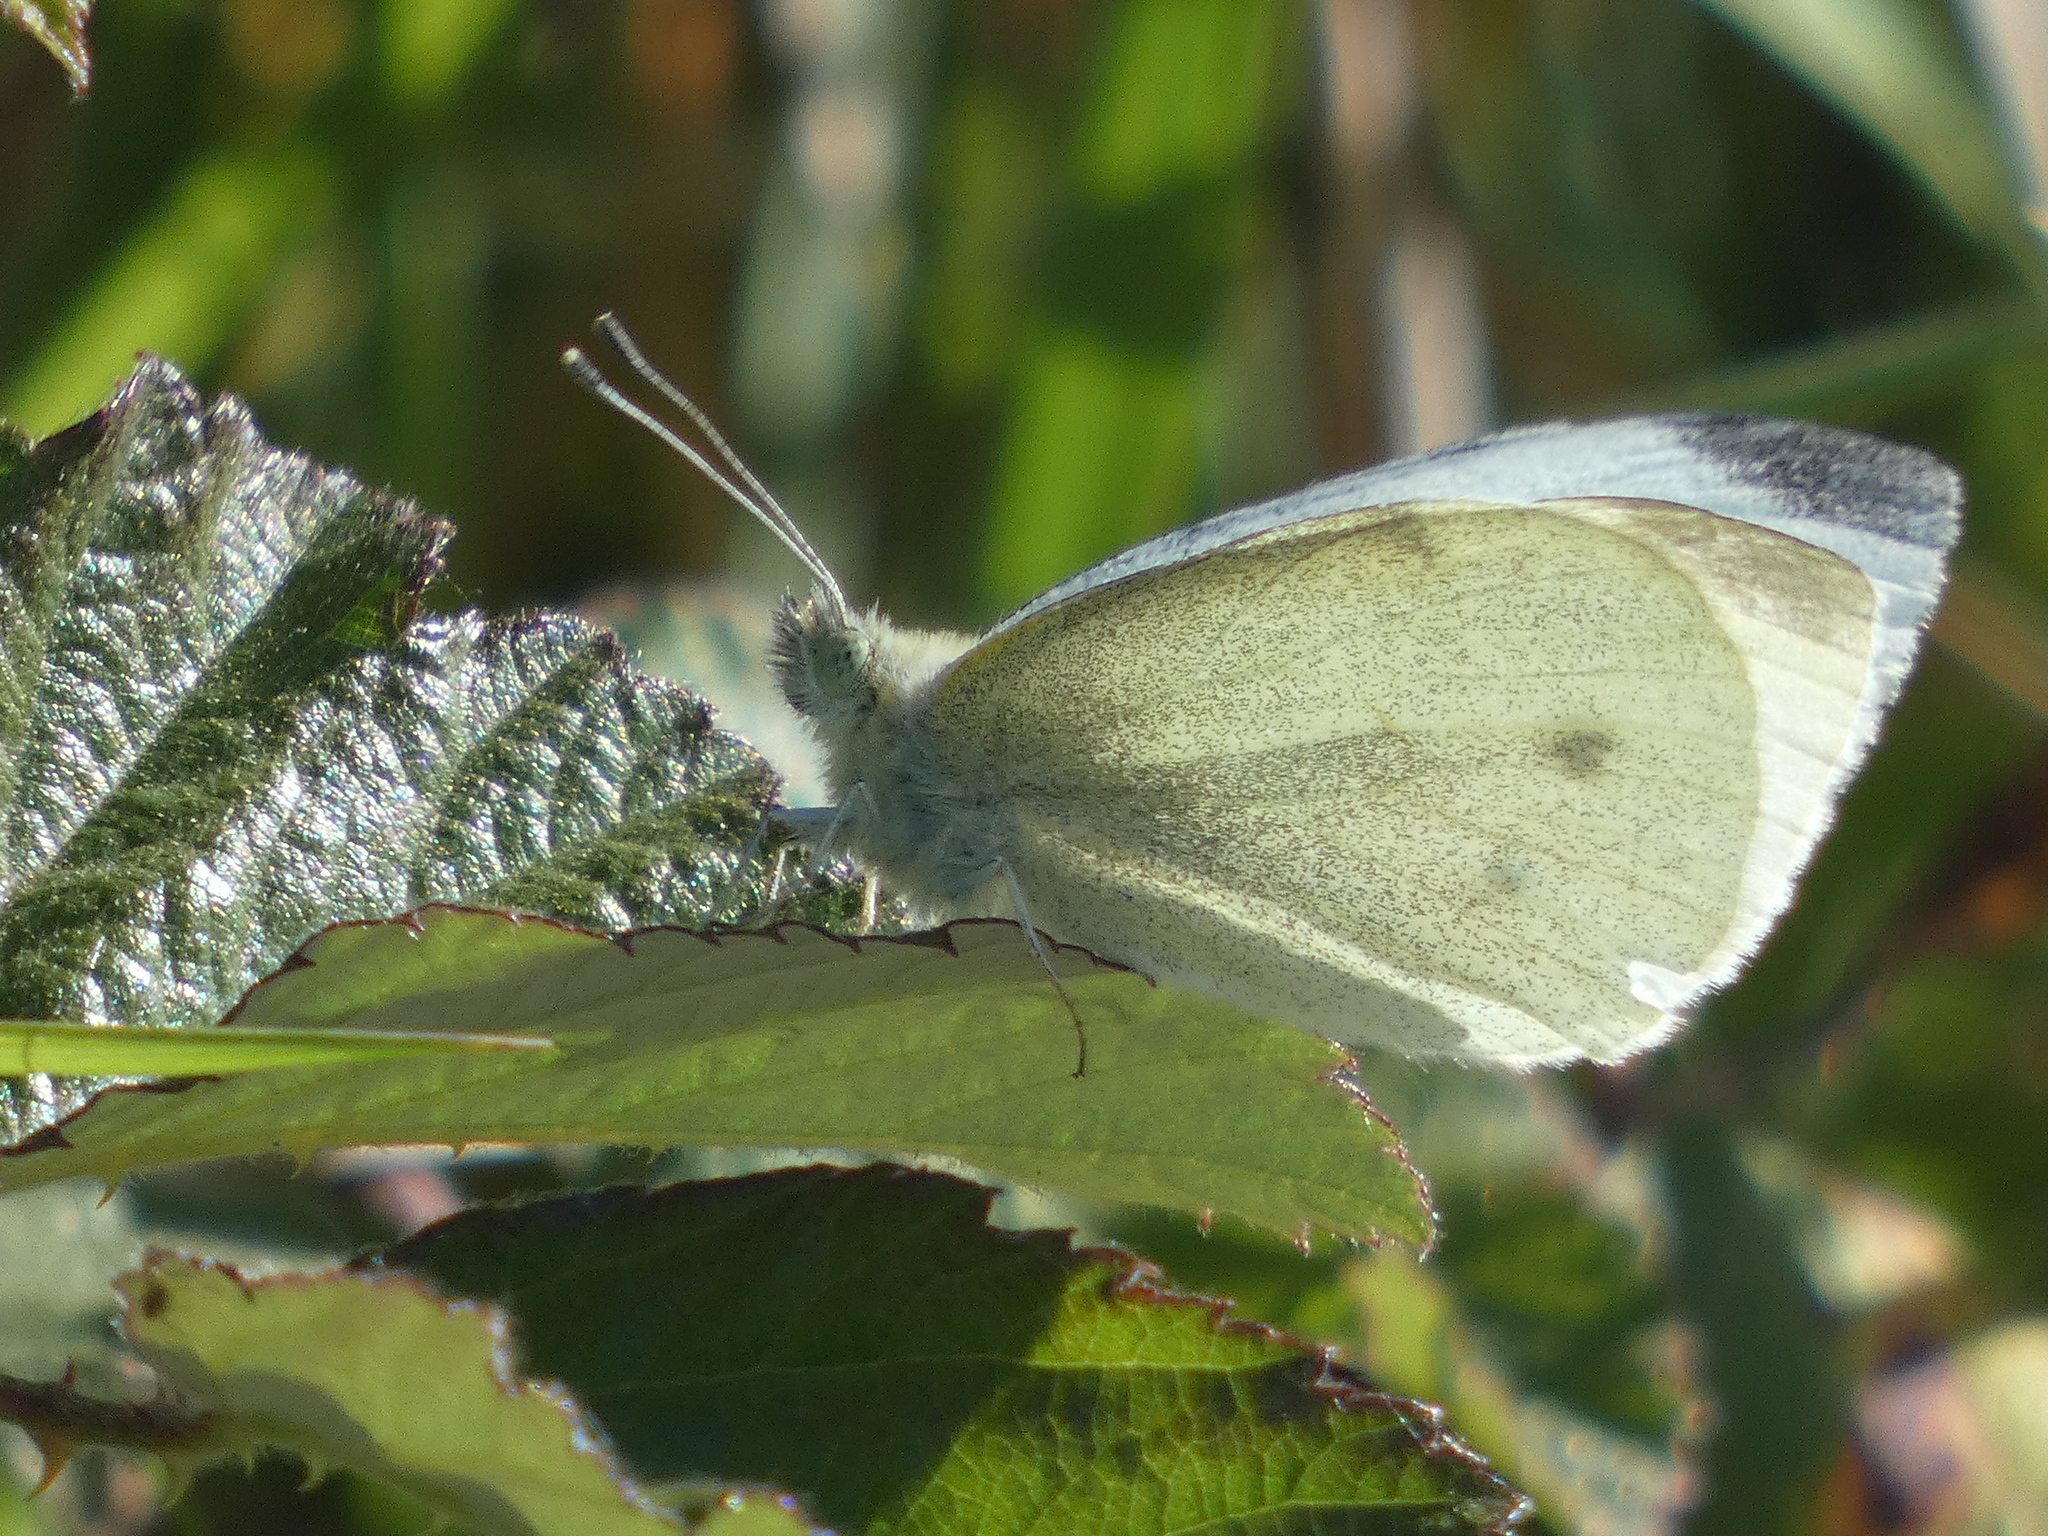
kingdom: Animalia
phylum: Arthropoda
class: Insecta
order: Lepidoptera
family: Pieridae
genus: Pieris
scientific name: Pieris rapae
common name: Small white
